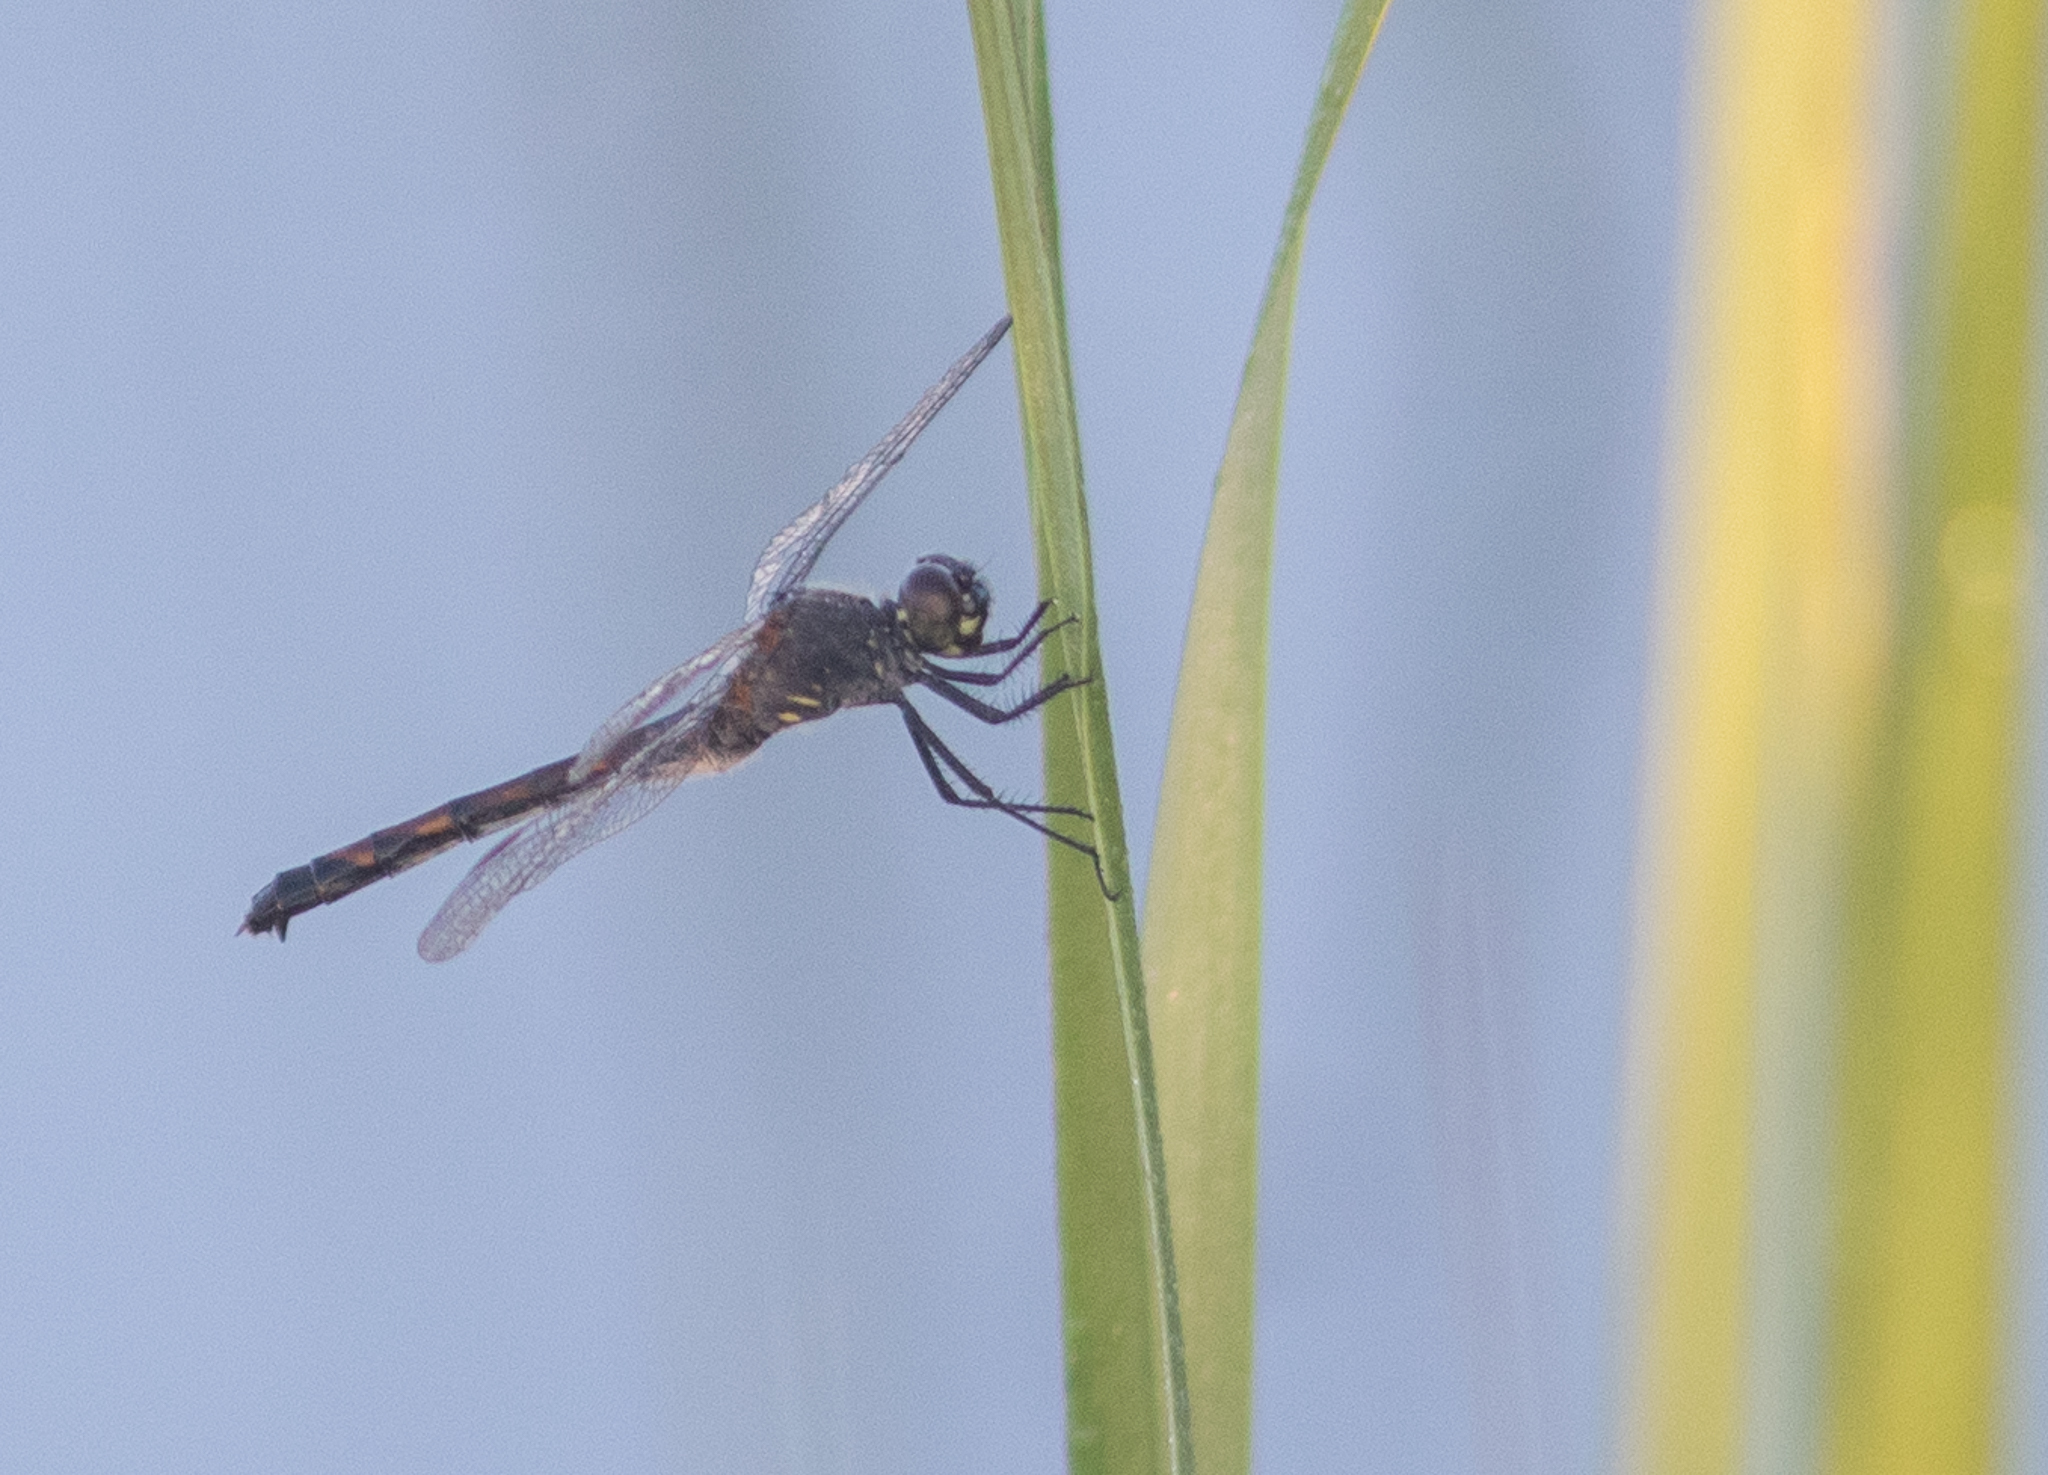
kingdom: Animalia
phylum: Arthropoda
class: Insecta
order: Odonata
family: Libellulidae
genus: Erythrodiplax
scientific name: Erythrodiplax berenice
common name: Seaside dragonlet
